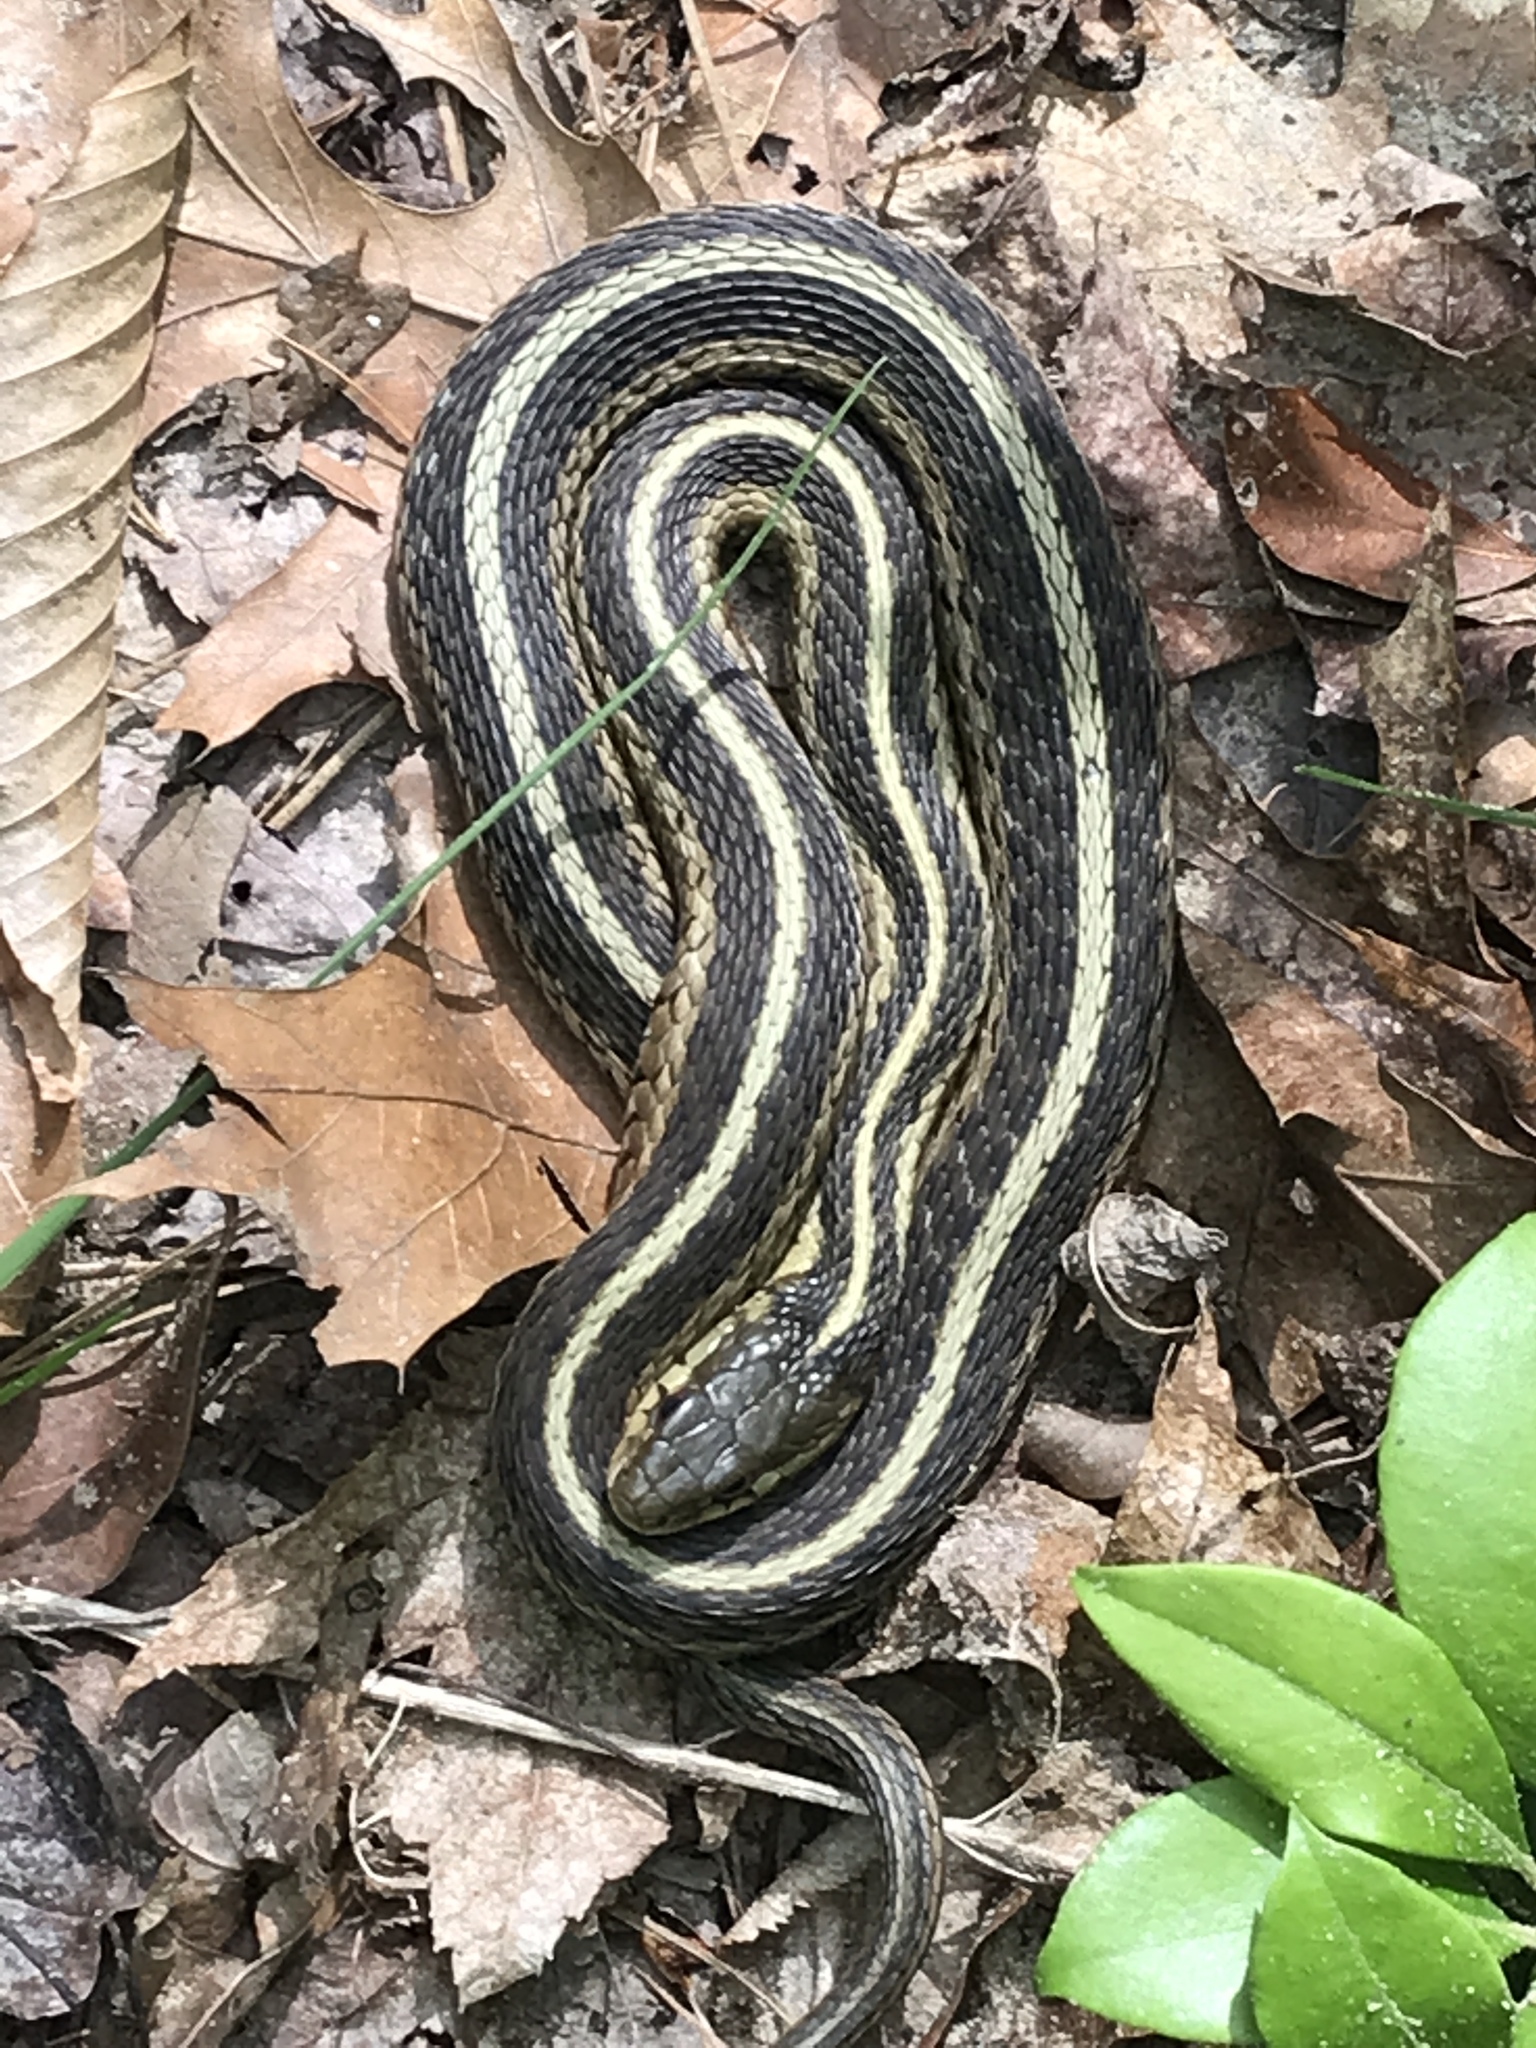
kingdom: Animalia
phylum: Chordata
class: Squamata
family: Colubridae
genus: Thamnophis
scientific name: Thamnophis sirtalis
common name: Common garter snake
